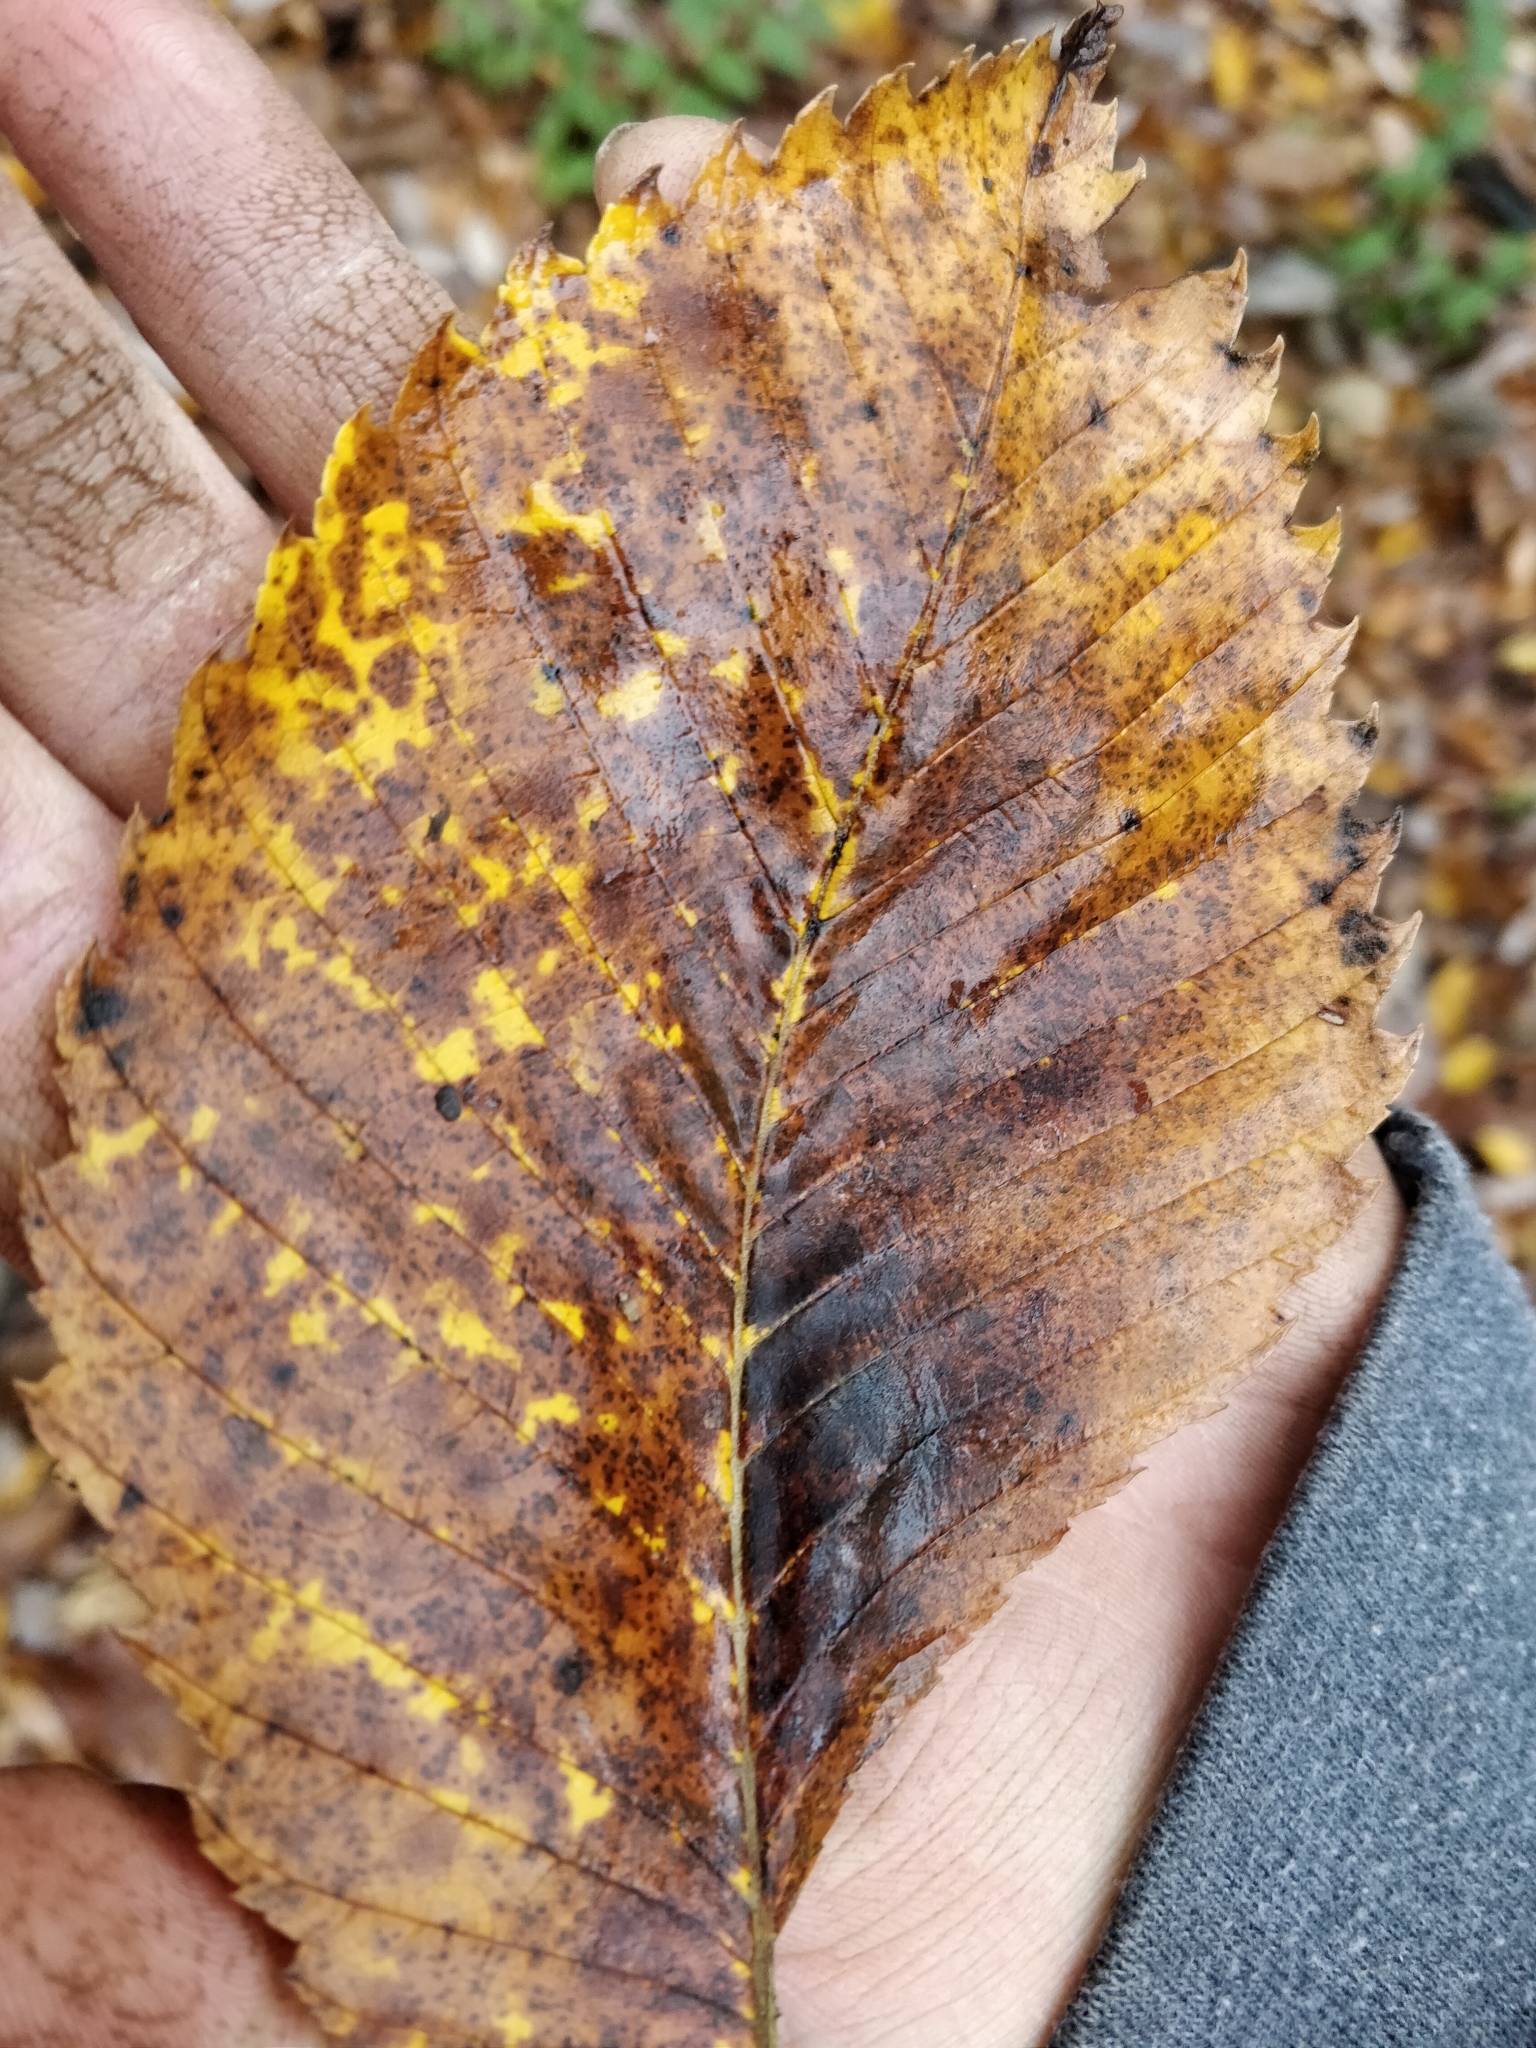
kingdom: Plantae
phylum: Tracheophyta
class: Magnoliopsida
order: Rosales
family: Ulmaceae
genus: Ulmus
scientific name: Ulmus americana
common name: American elm
